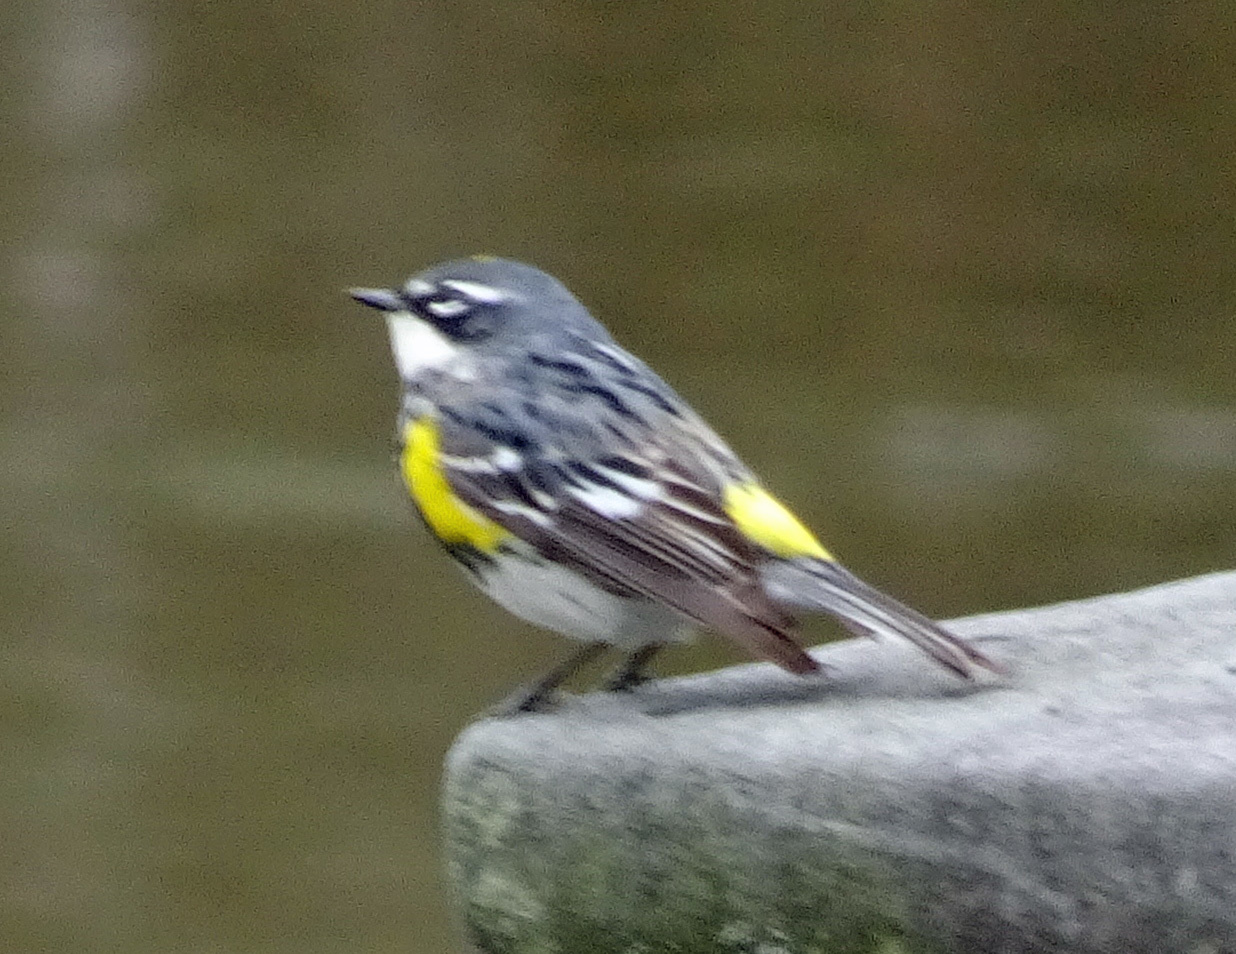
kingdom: Animalia
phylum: Chordata
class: Aves
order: Passeriformes
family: Parulidae
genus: Setophaga
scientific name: Setophaga coronata
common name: Myrtle warbler
